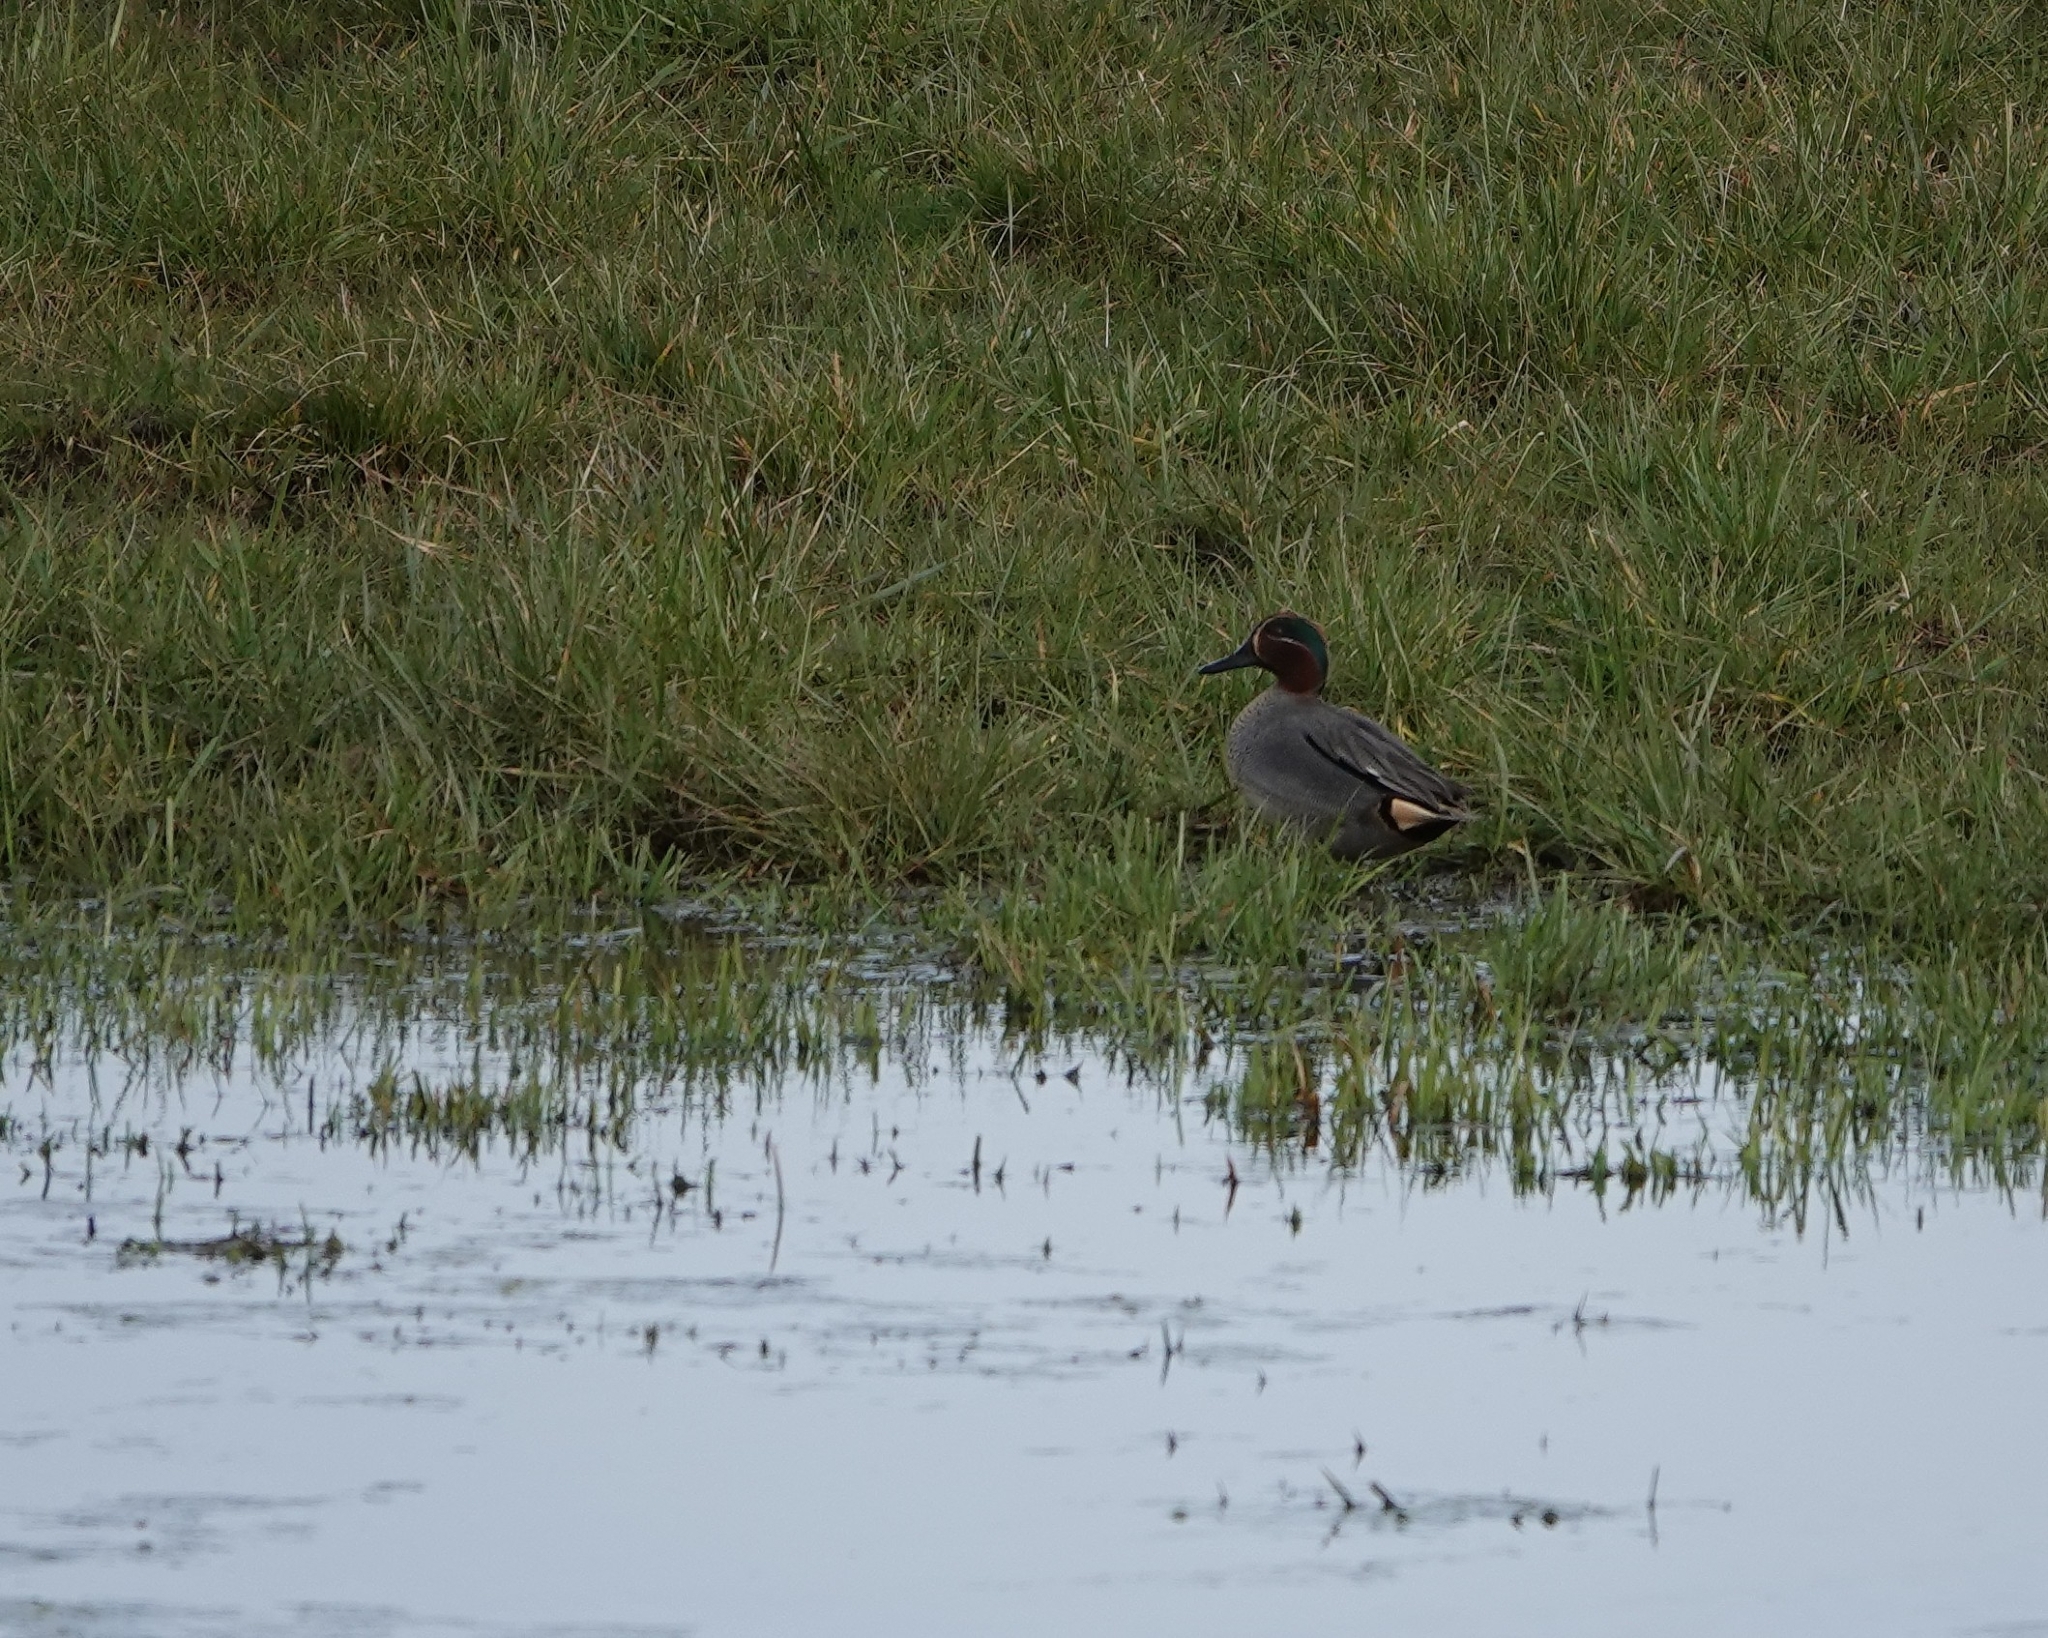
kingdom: Animalia
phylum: Chordata
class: Aves
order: Anseriformes
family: Anatidae
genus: Anas
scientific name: Anas crecca
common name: Eurasian teal
